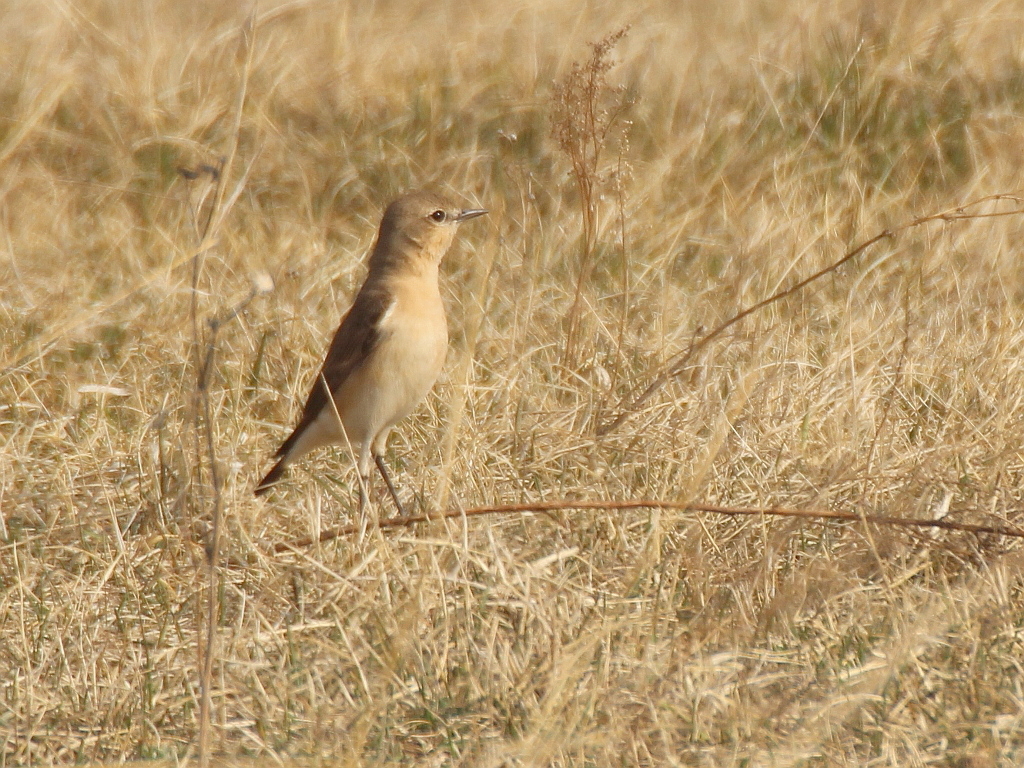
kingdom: Animalia
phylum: Chordata
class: Aves
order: Passeriformes
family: Muscicapidae
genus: Oenanthe
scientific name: Oenanthe isabellina
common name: Isabelline wheatear
